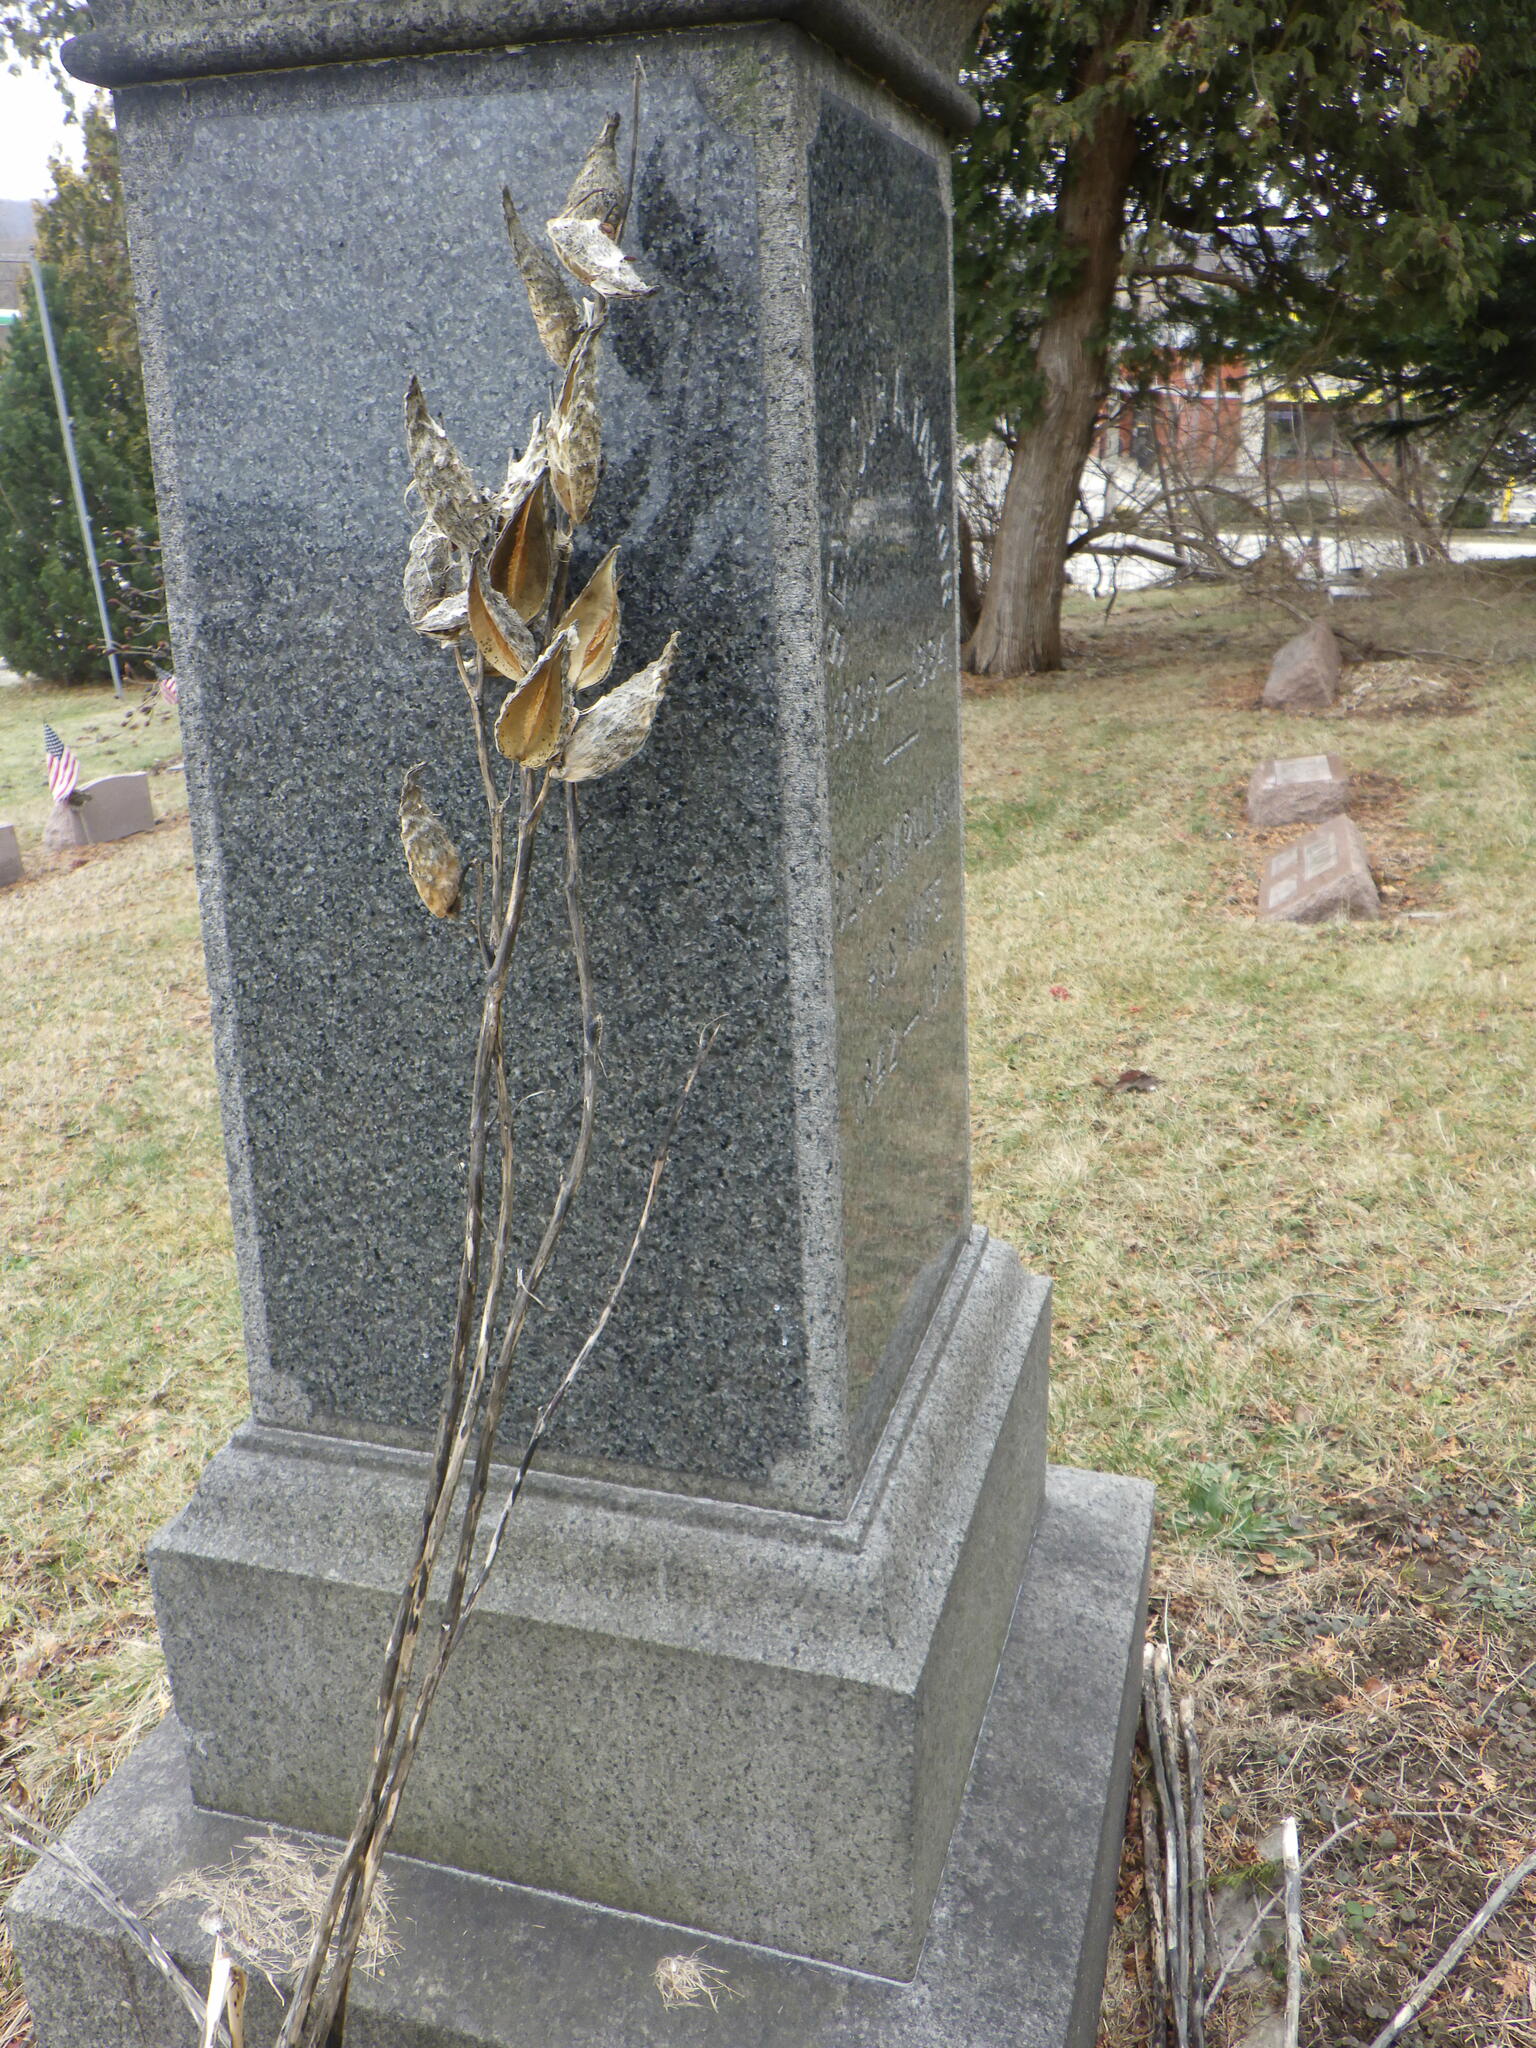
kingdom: Plantae
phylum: Tracheophyta
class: Magnoliopsida
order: Gentianales
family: Apocynaceae
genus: Asclepias
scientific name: Asclepias syriaca
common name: Common milkweed
